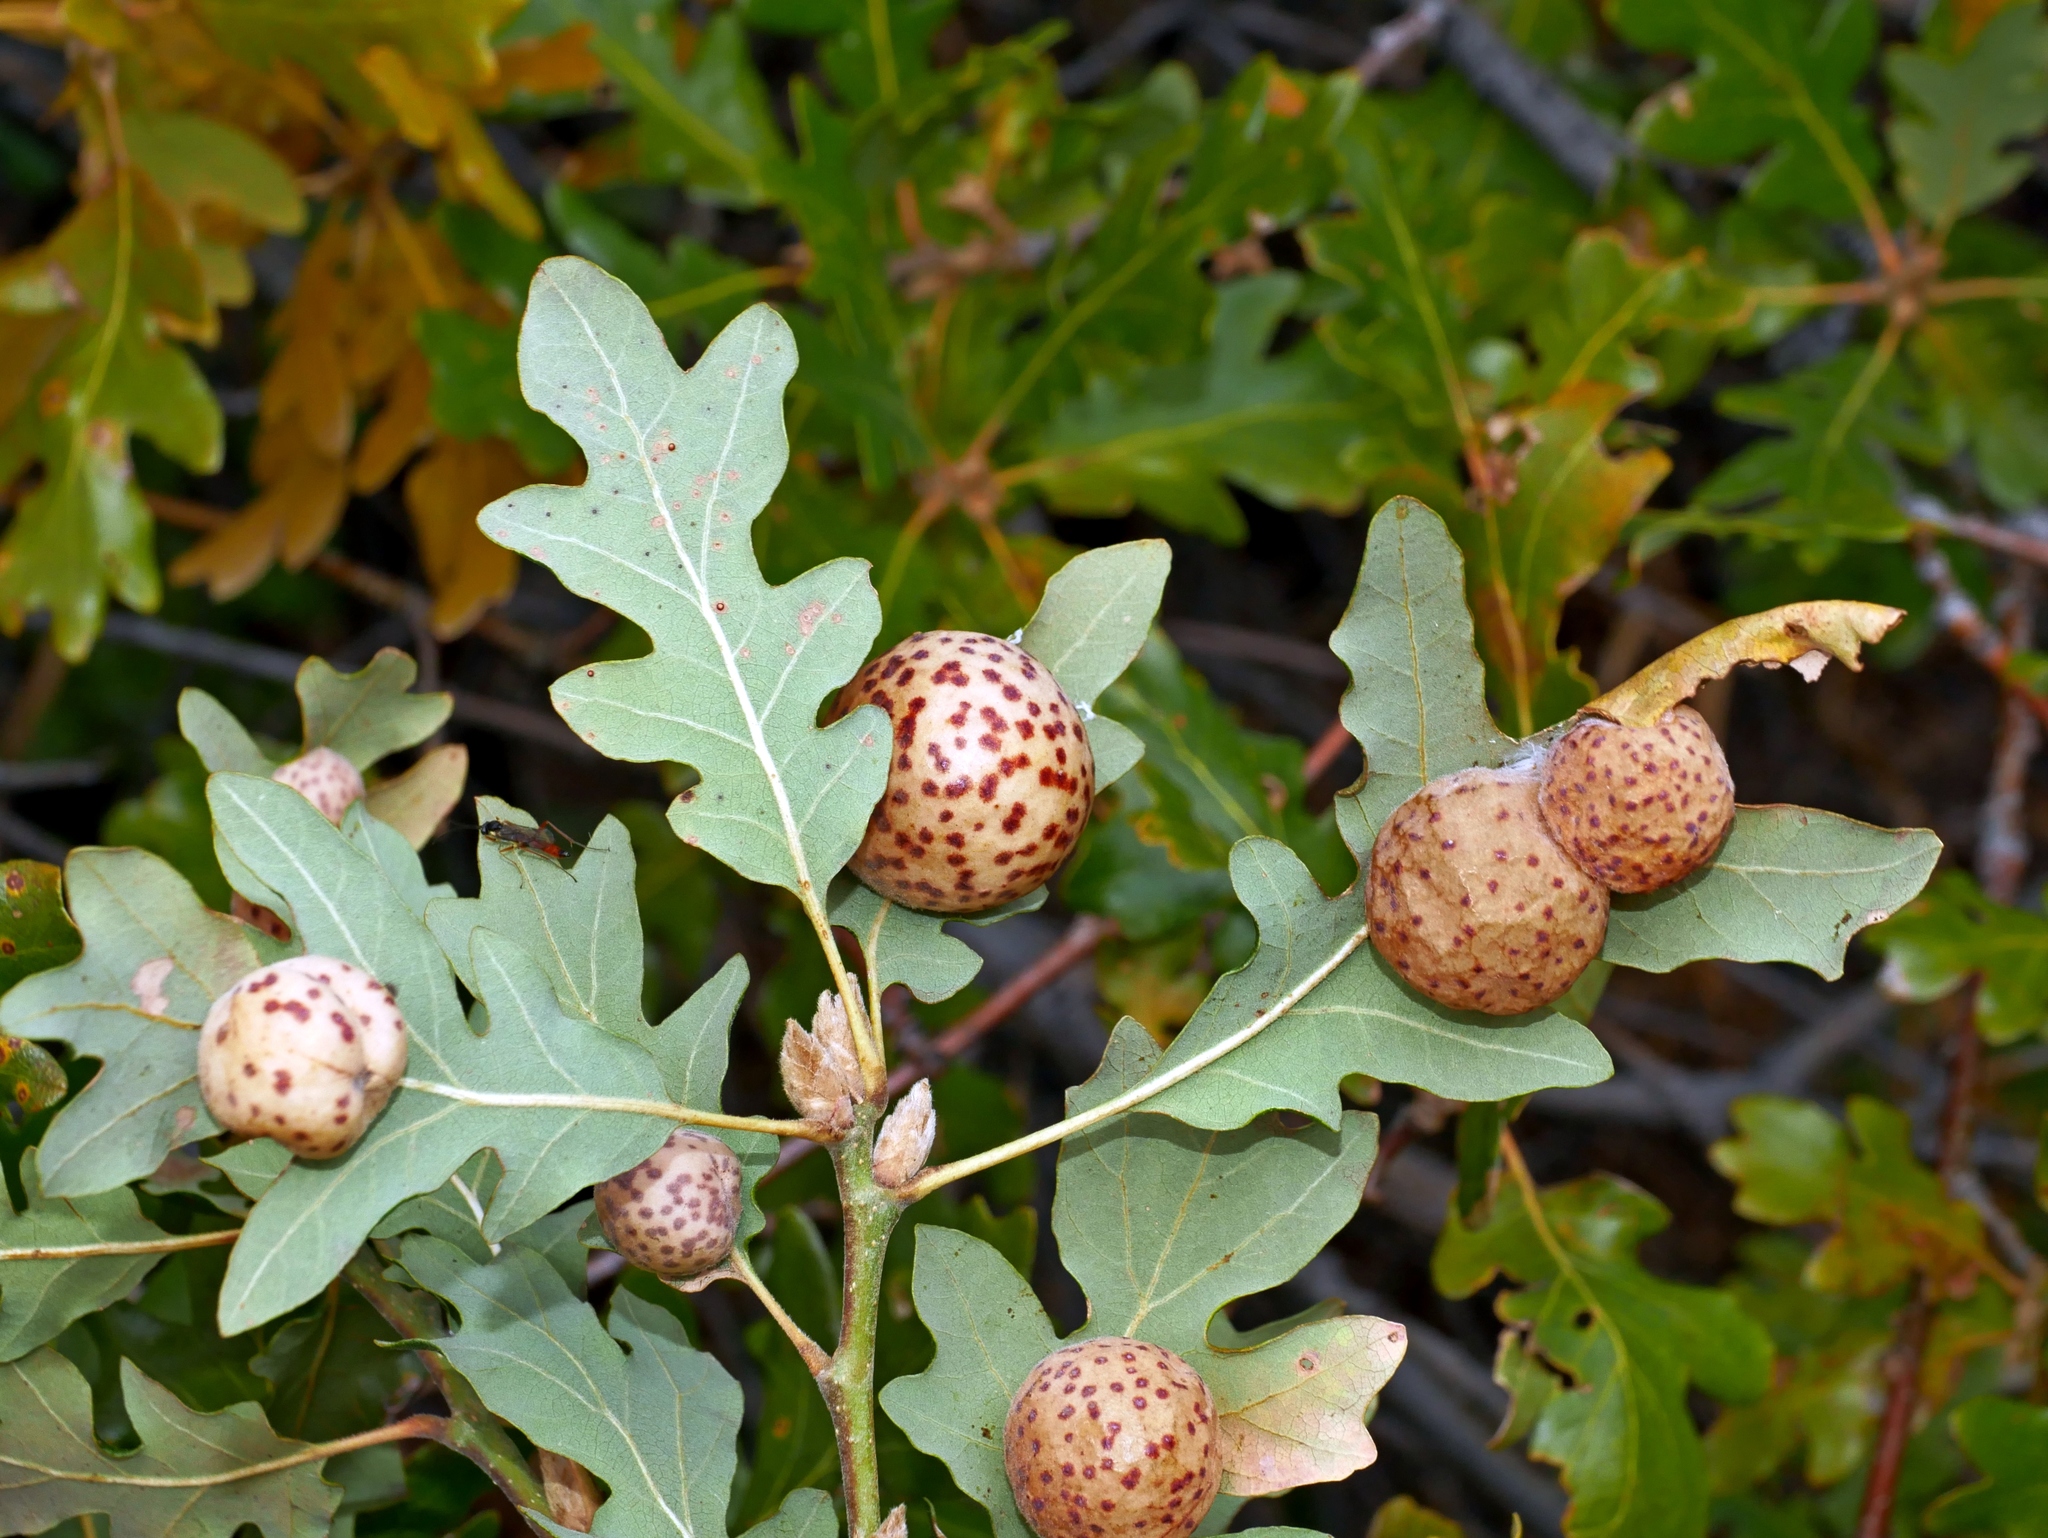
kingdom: Animalia
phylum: Arthropoda
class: Insecta
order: Hymenoptera
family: Cynipidae
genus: Cynips
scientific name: Cynips
